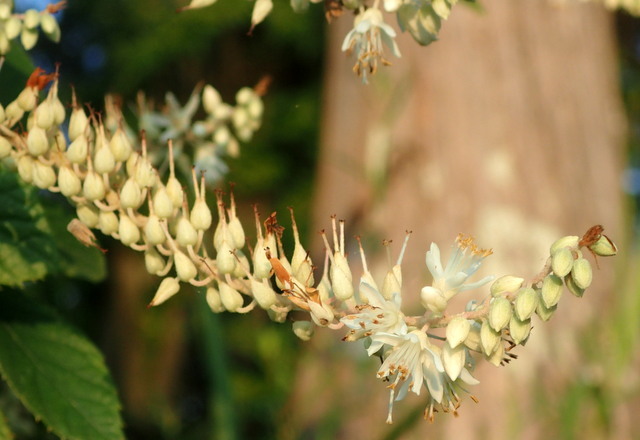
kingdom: Plantae
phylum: Tracheophyta
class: Magnoliopsida
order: Ericales
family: Clethraceae
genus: Clethra
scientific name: Clethra alnifolia
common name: Sweet pepperbush
